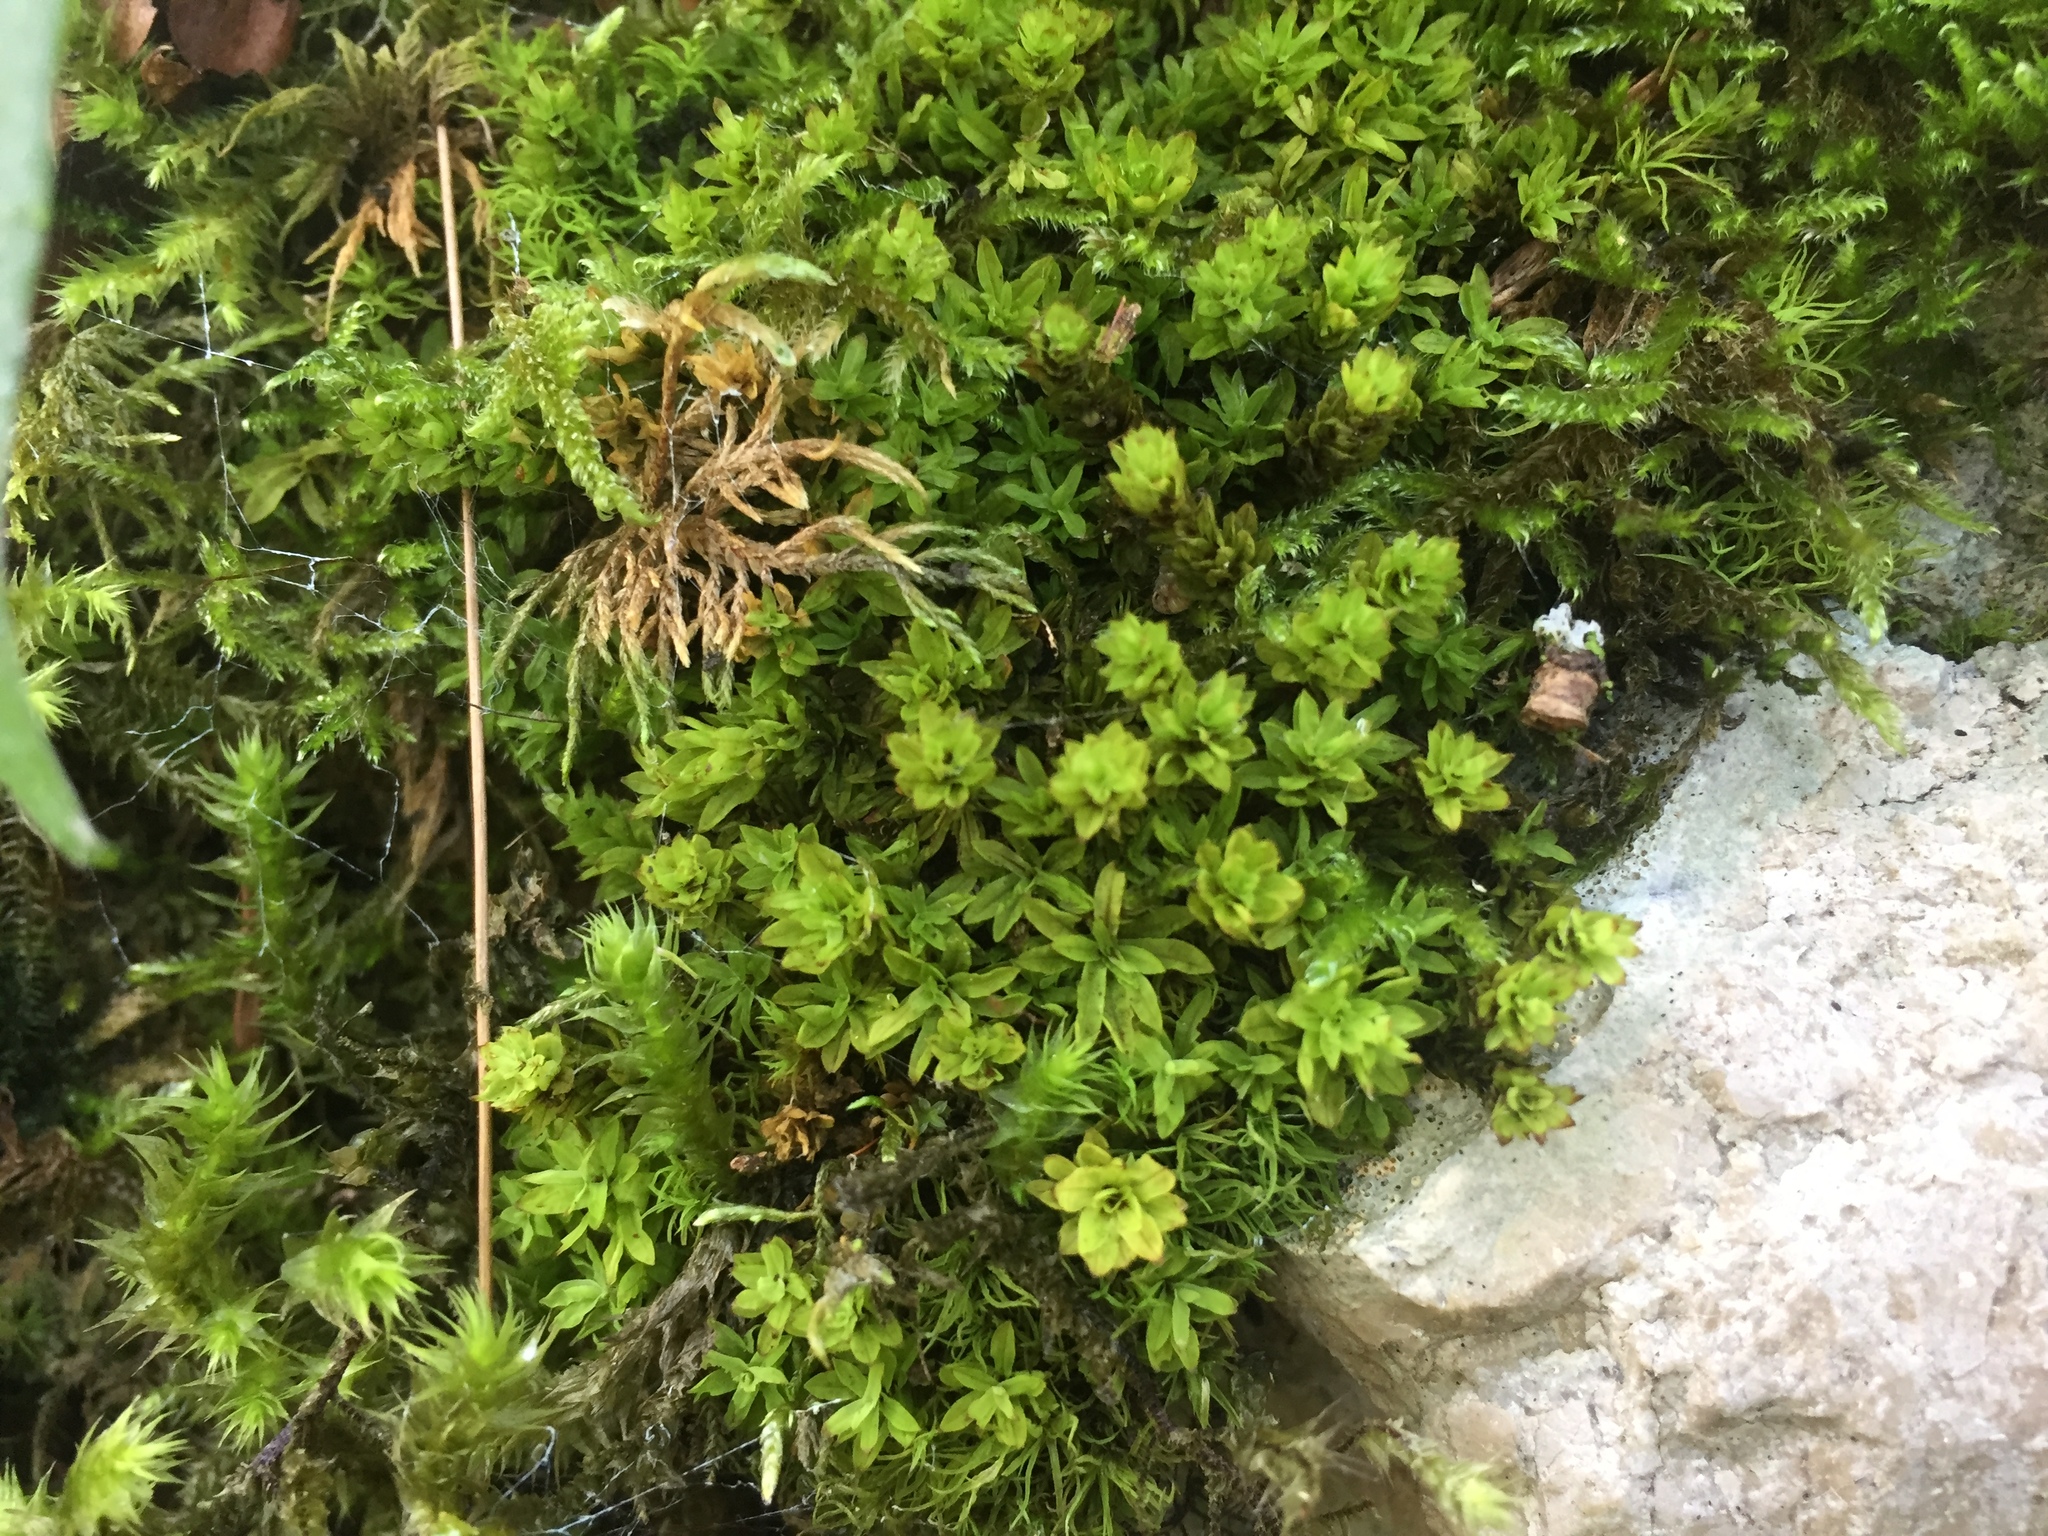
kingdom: Plantae
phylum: Bryophyta
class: Bryopsida
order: Encalyptales
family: Encalyptaceae
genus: Encalypta
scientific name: Encalypta streptocarpa
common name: Spiral extinguisher-moss
